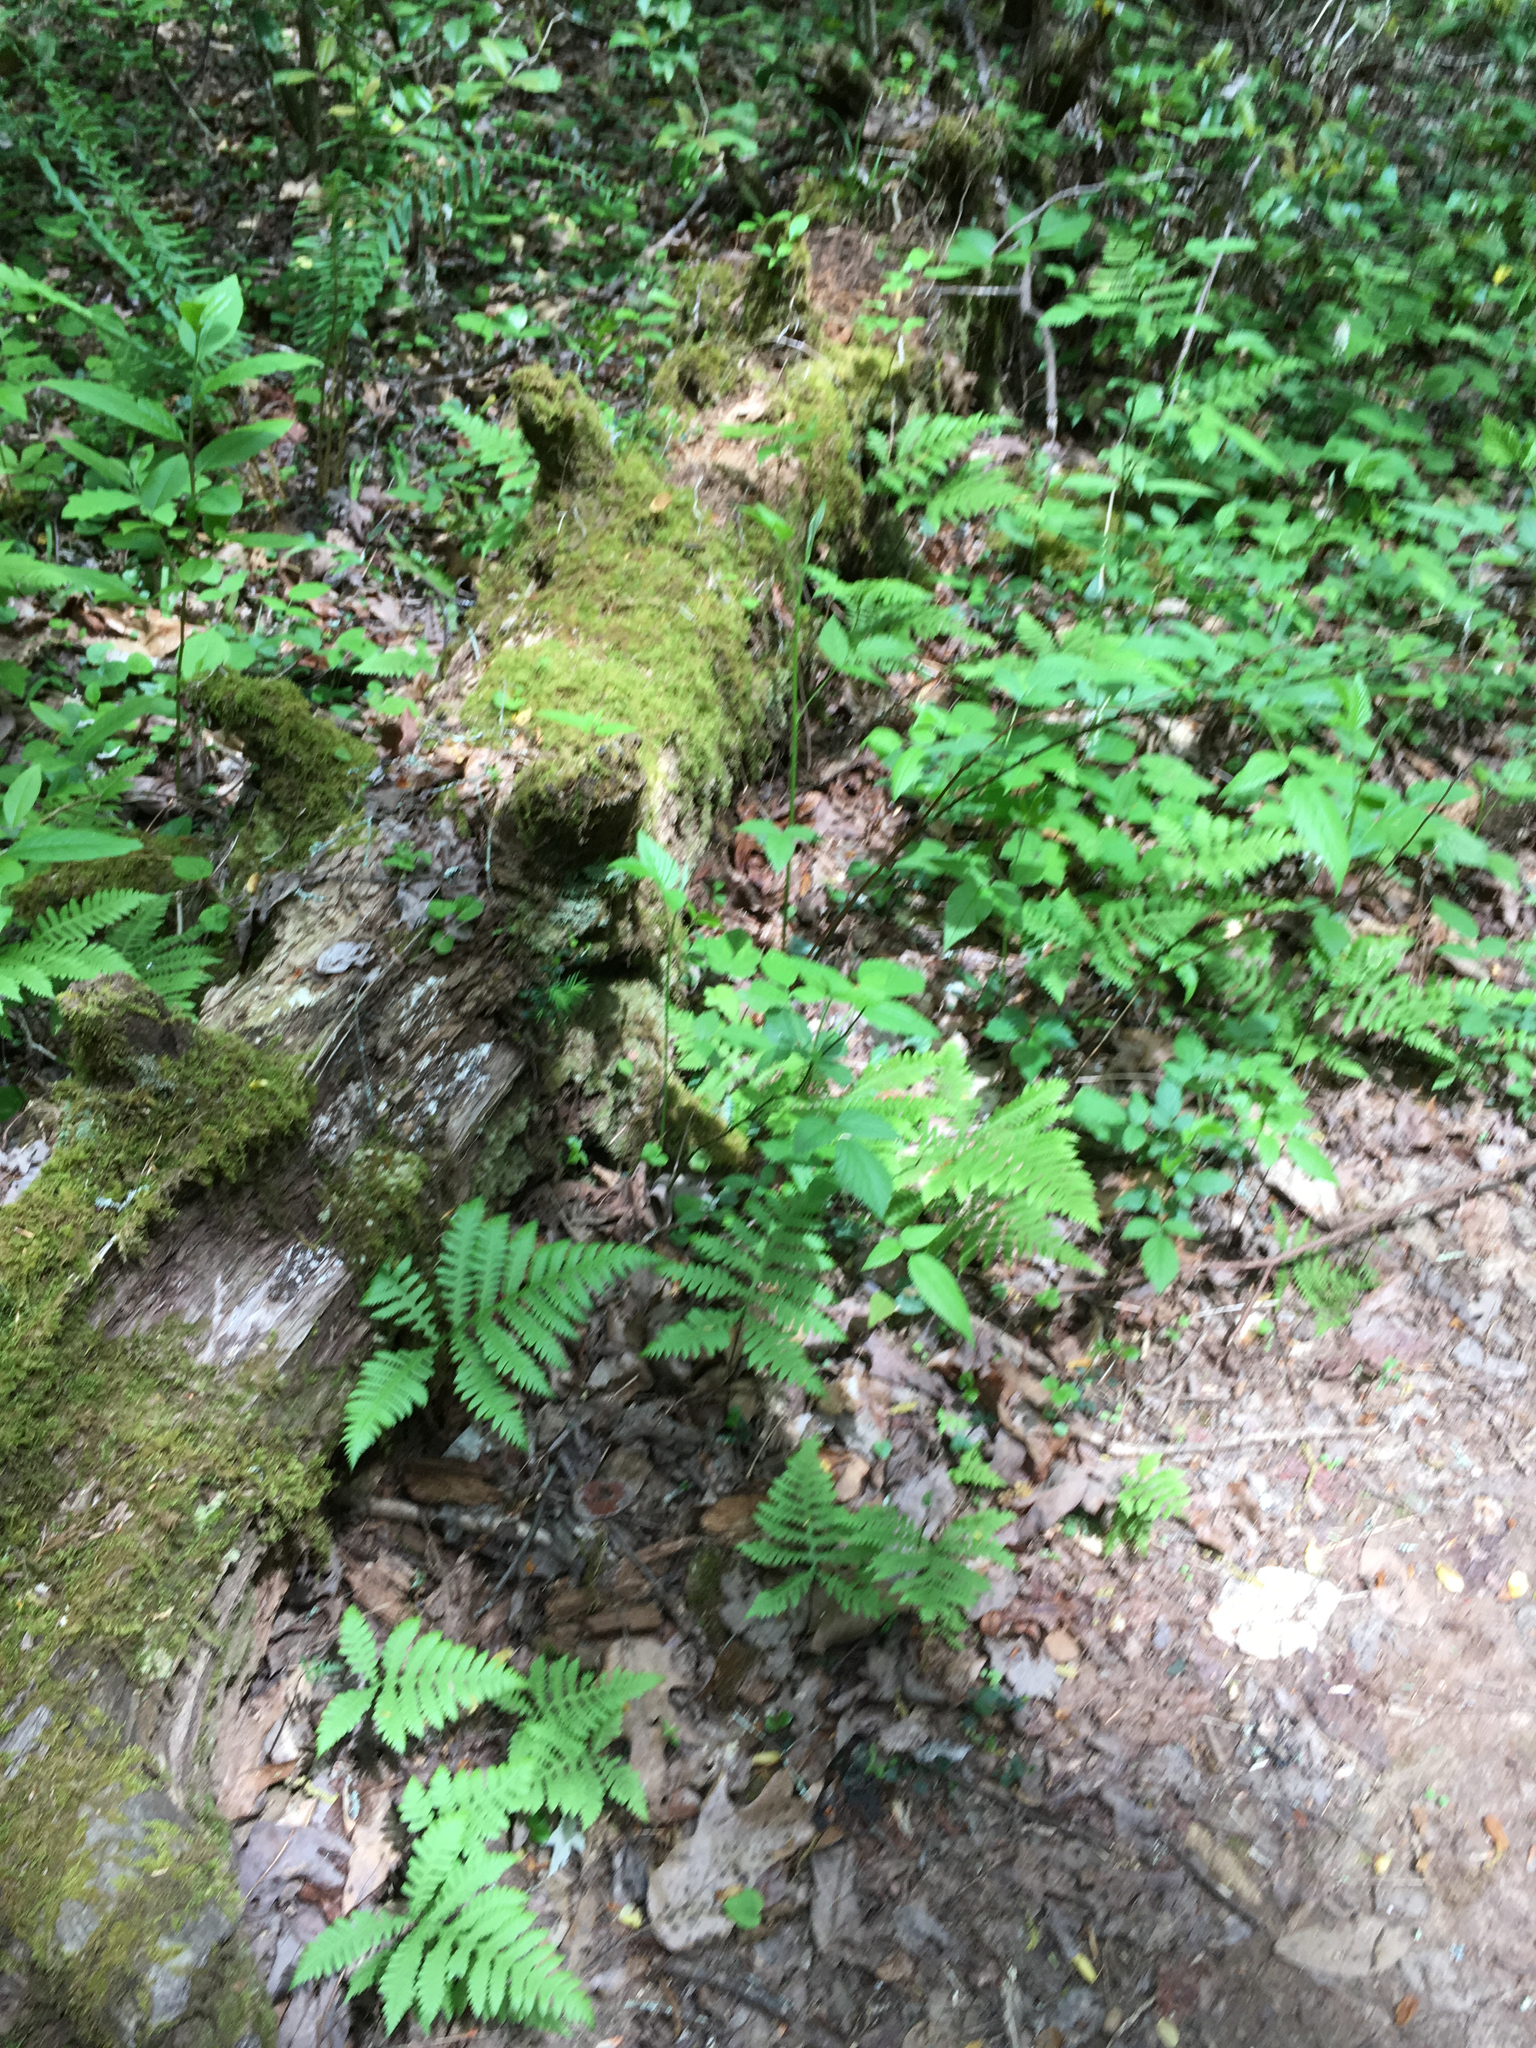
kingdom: Plantae
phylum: Tracheophyta
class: Polypodiopsida
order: Polypodiales
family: Thelypteridaceae
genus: Phegopteris
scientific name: Phegopteris hexagonoptera
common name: Broad beech fern
